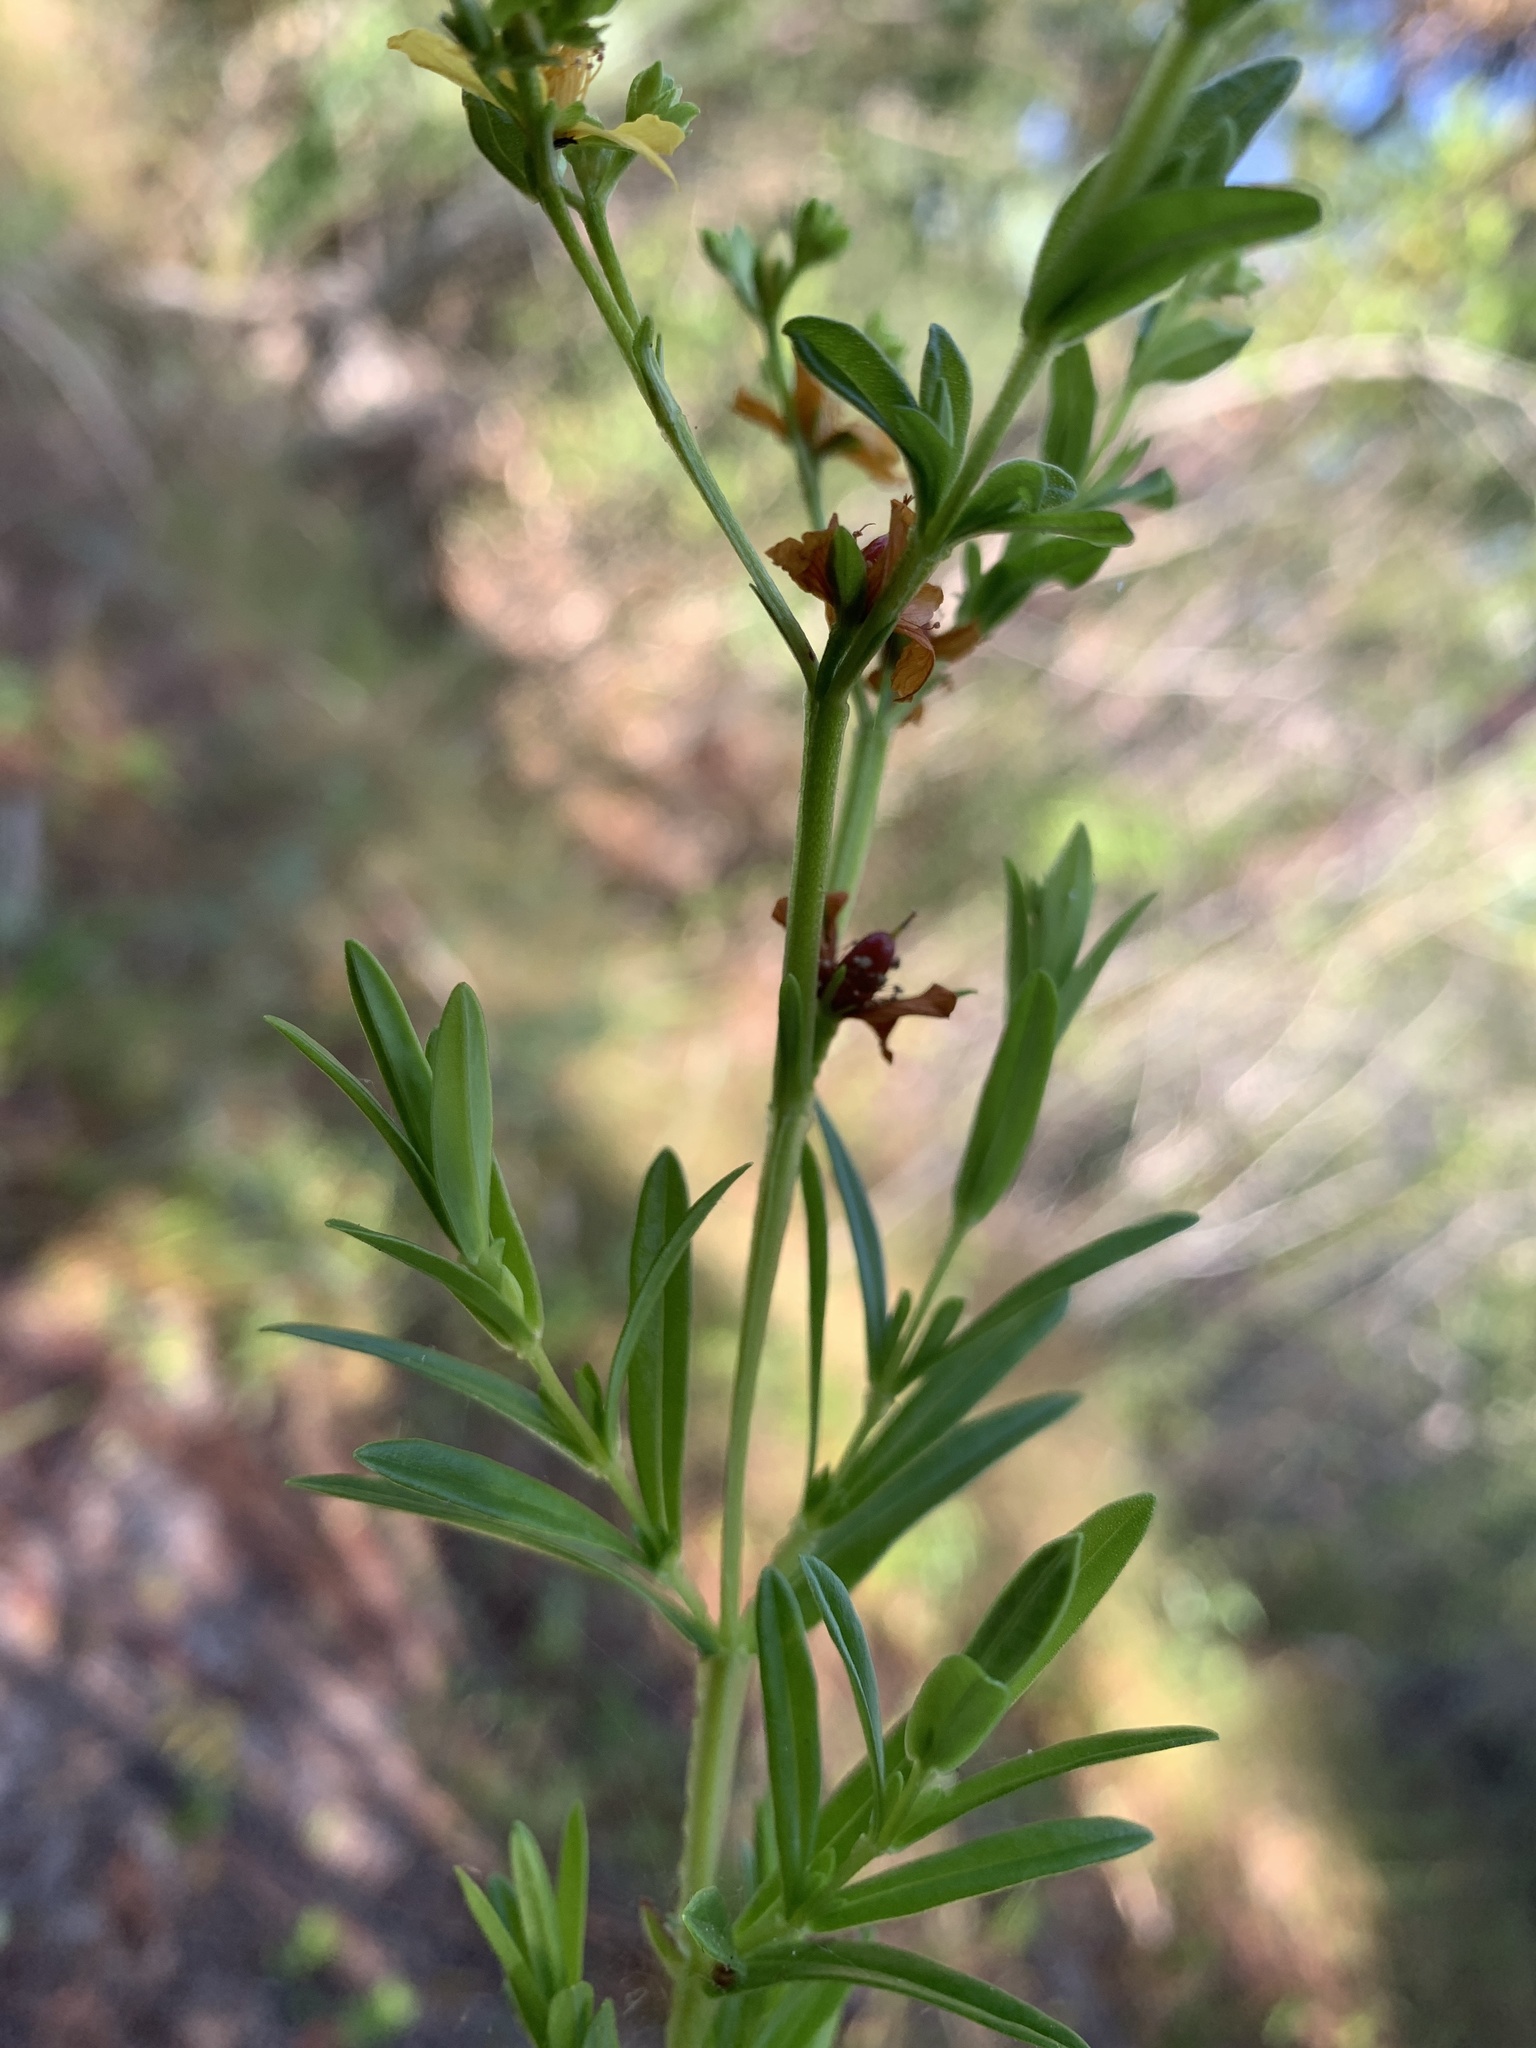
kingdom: Plantae
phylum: Tracheophyta
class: Magnoliopsida
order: Malpighiales
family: Hypericaceae
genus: Hypericum
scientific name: Hypericum cistifolium
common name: Round-pod st. john's-wort
